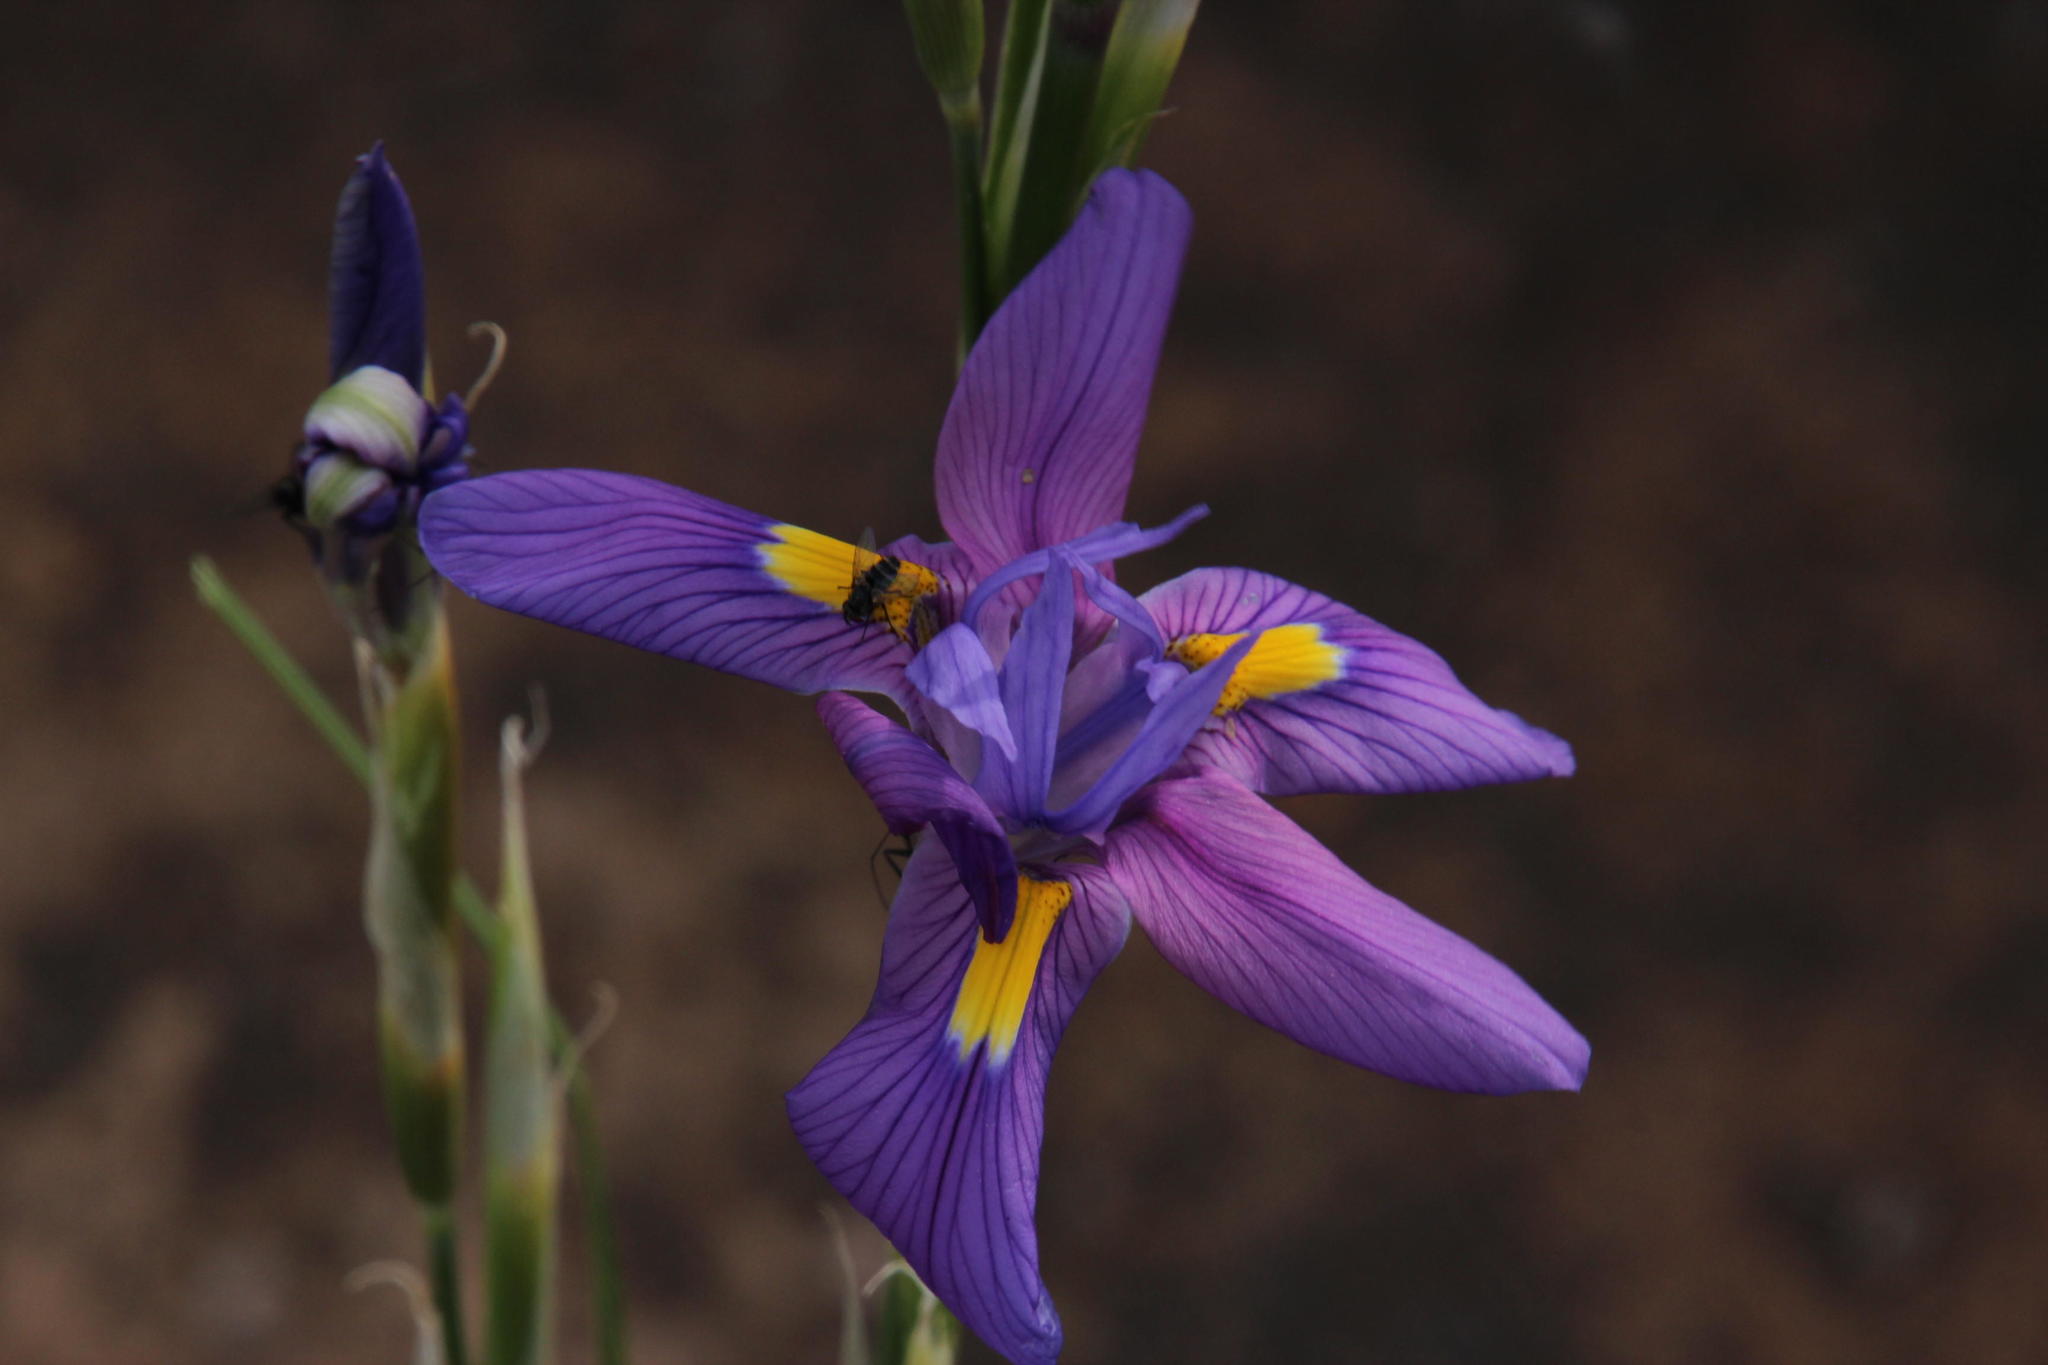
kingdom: Plantae
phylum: Tracheophyta
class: Liliopsida
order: Asparagales
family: Iridaceae
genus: Moraea
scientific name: Moraea polystachya
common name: Blue-tulip
